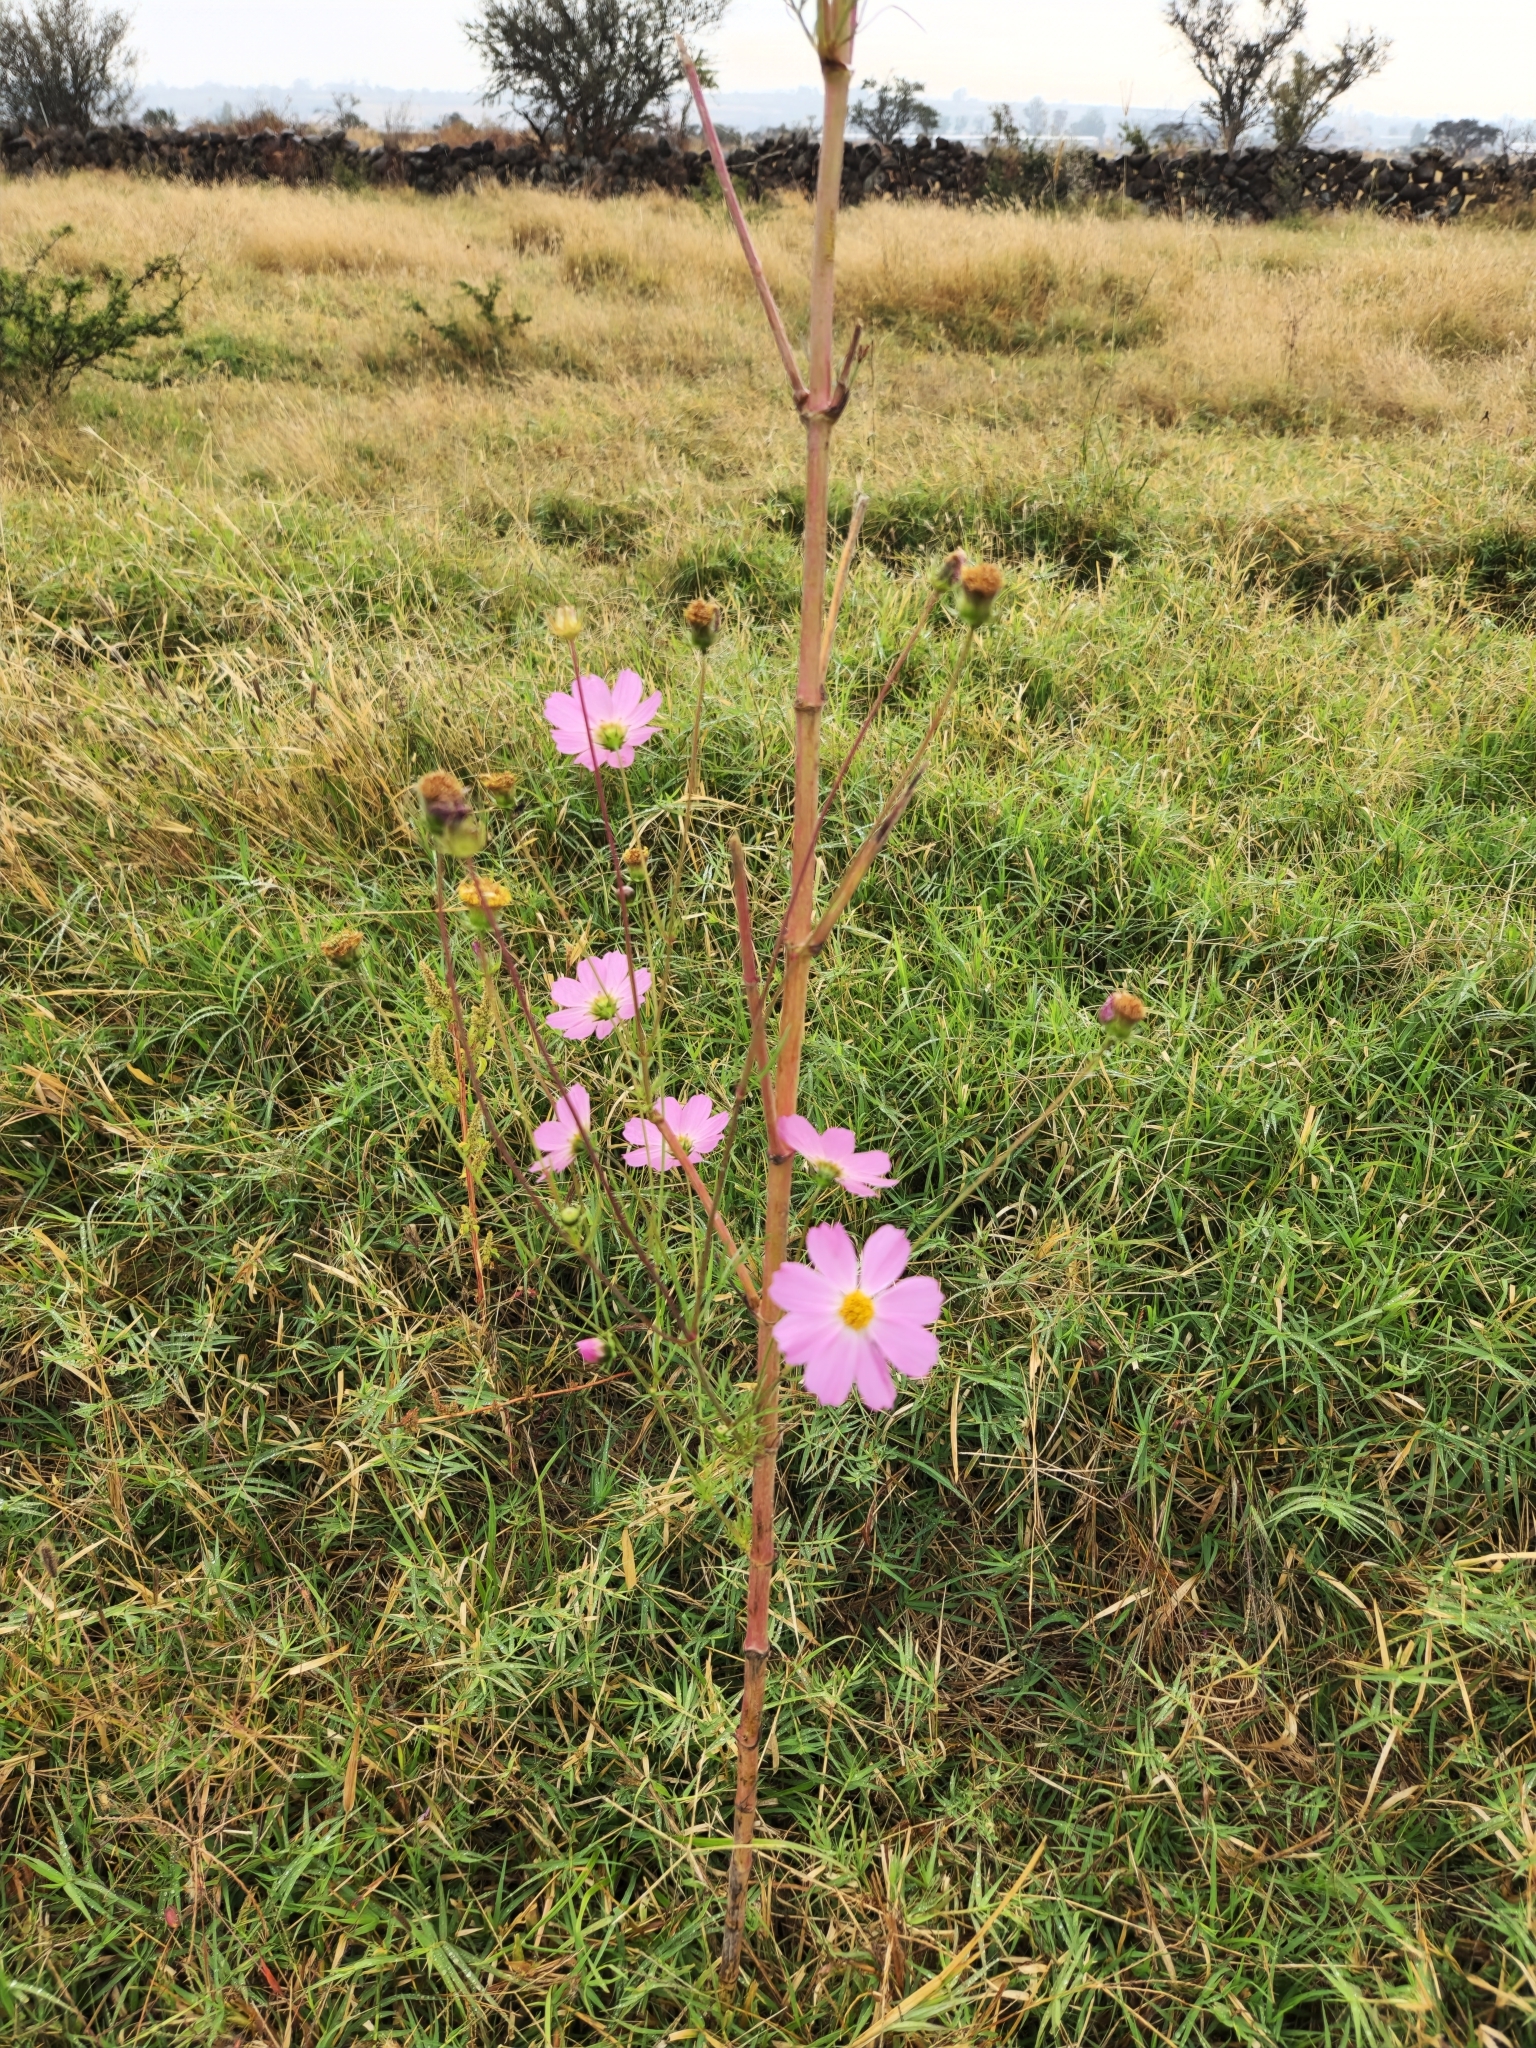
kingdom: Plantae
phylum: Tracheophyta
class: Magnoliopsida
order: Asterales
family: Asteraceae
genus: Cosmos
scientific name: Cosmos bipinnatus
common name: Garden cosmos
